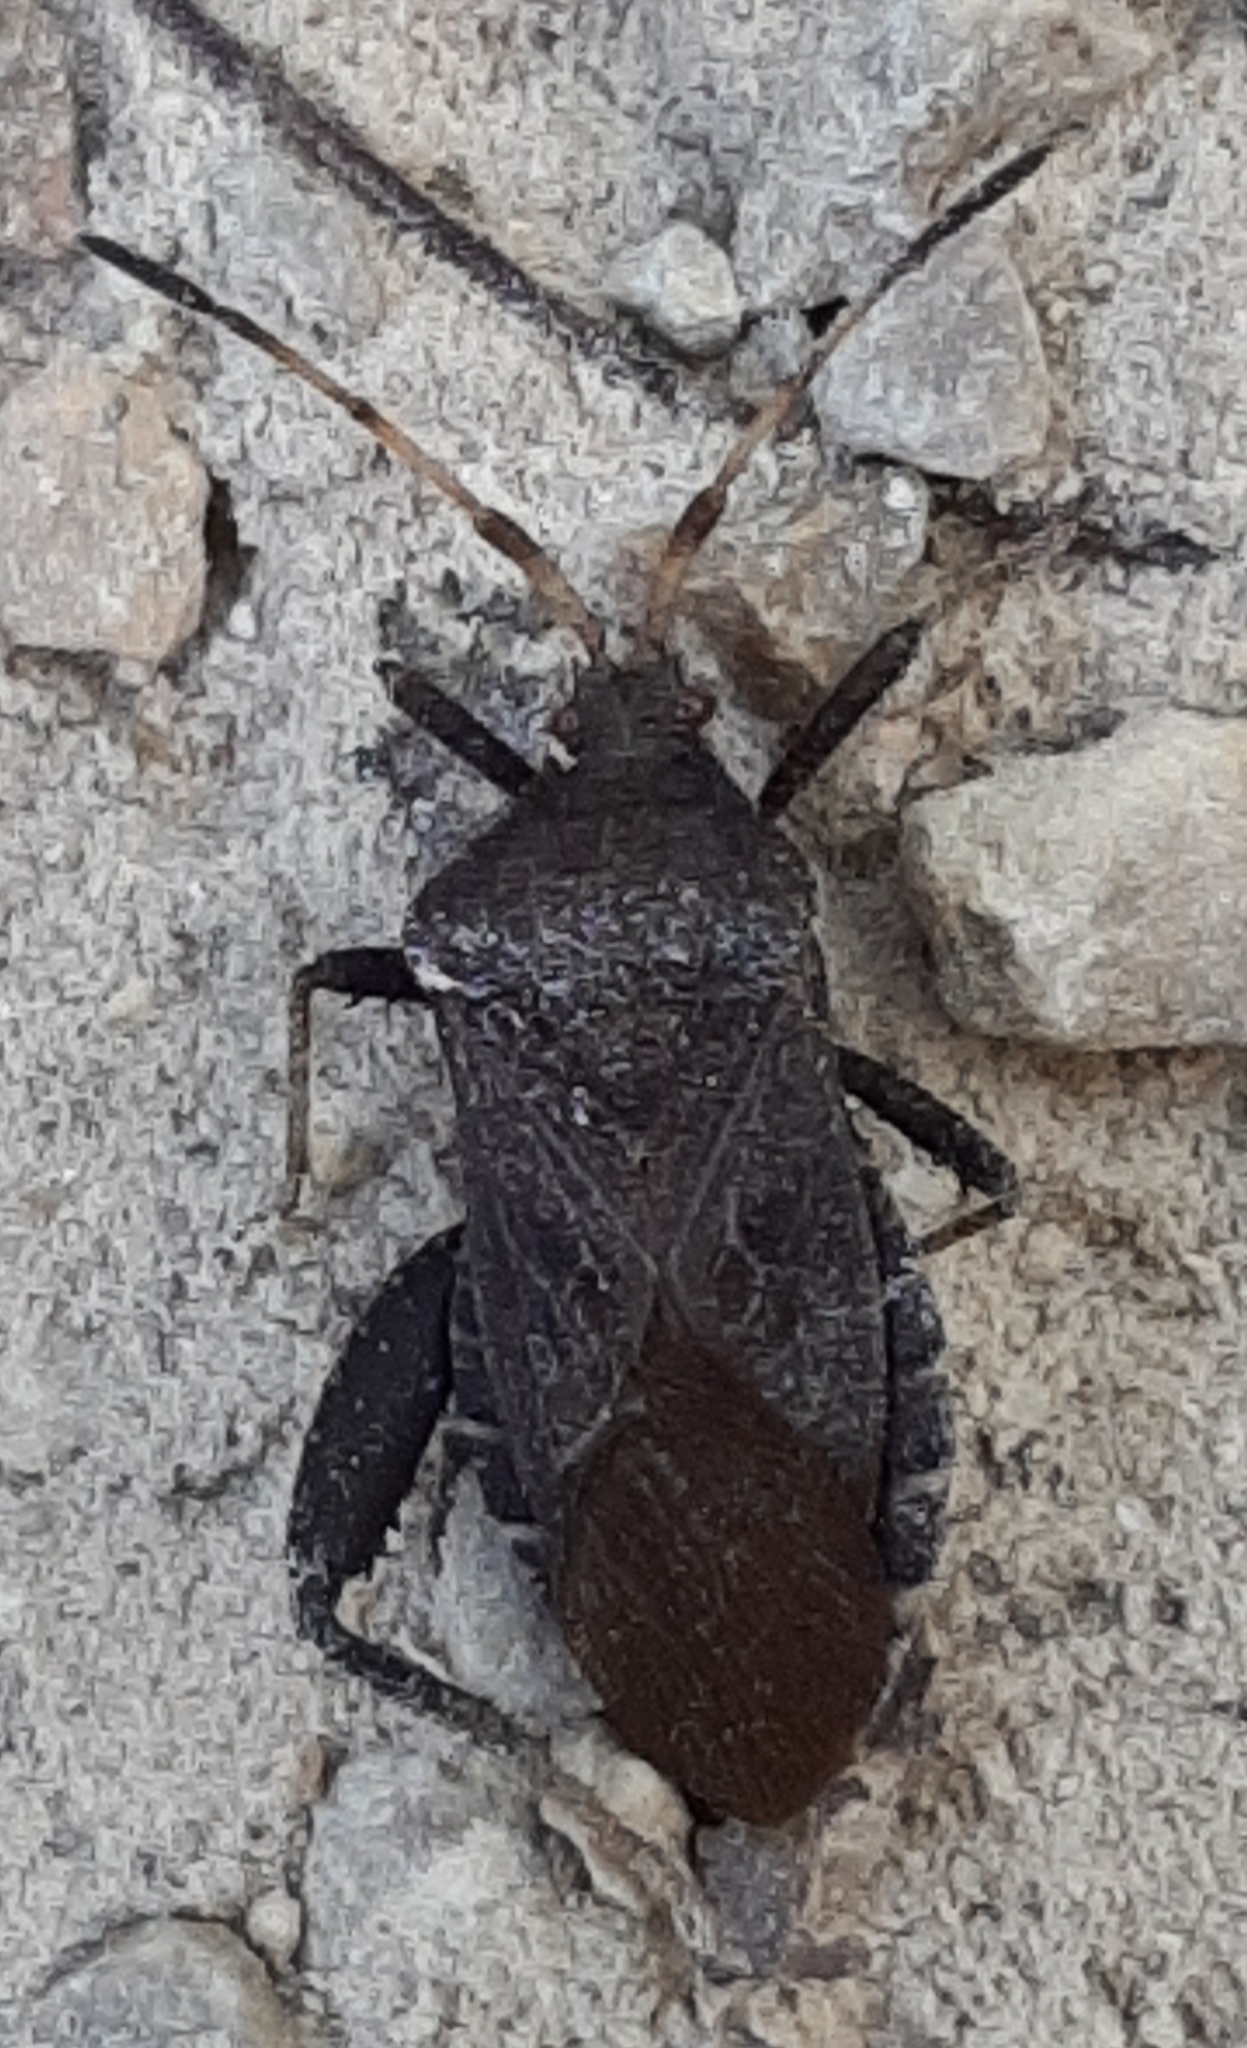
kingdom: Animalia
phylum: Arthropoda
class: Insecta
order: Hemiptera
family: Coreidae
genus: Euthochtha
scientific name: Euthochtha galeator
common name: Helmeted squash bug
